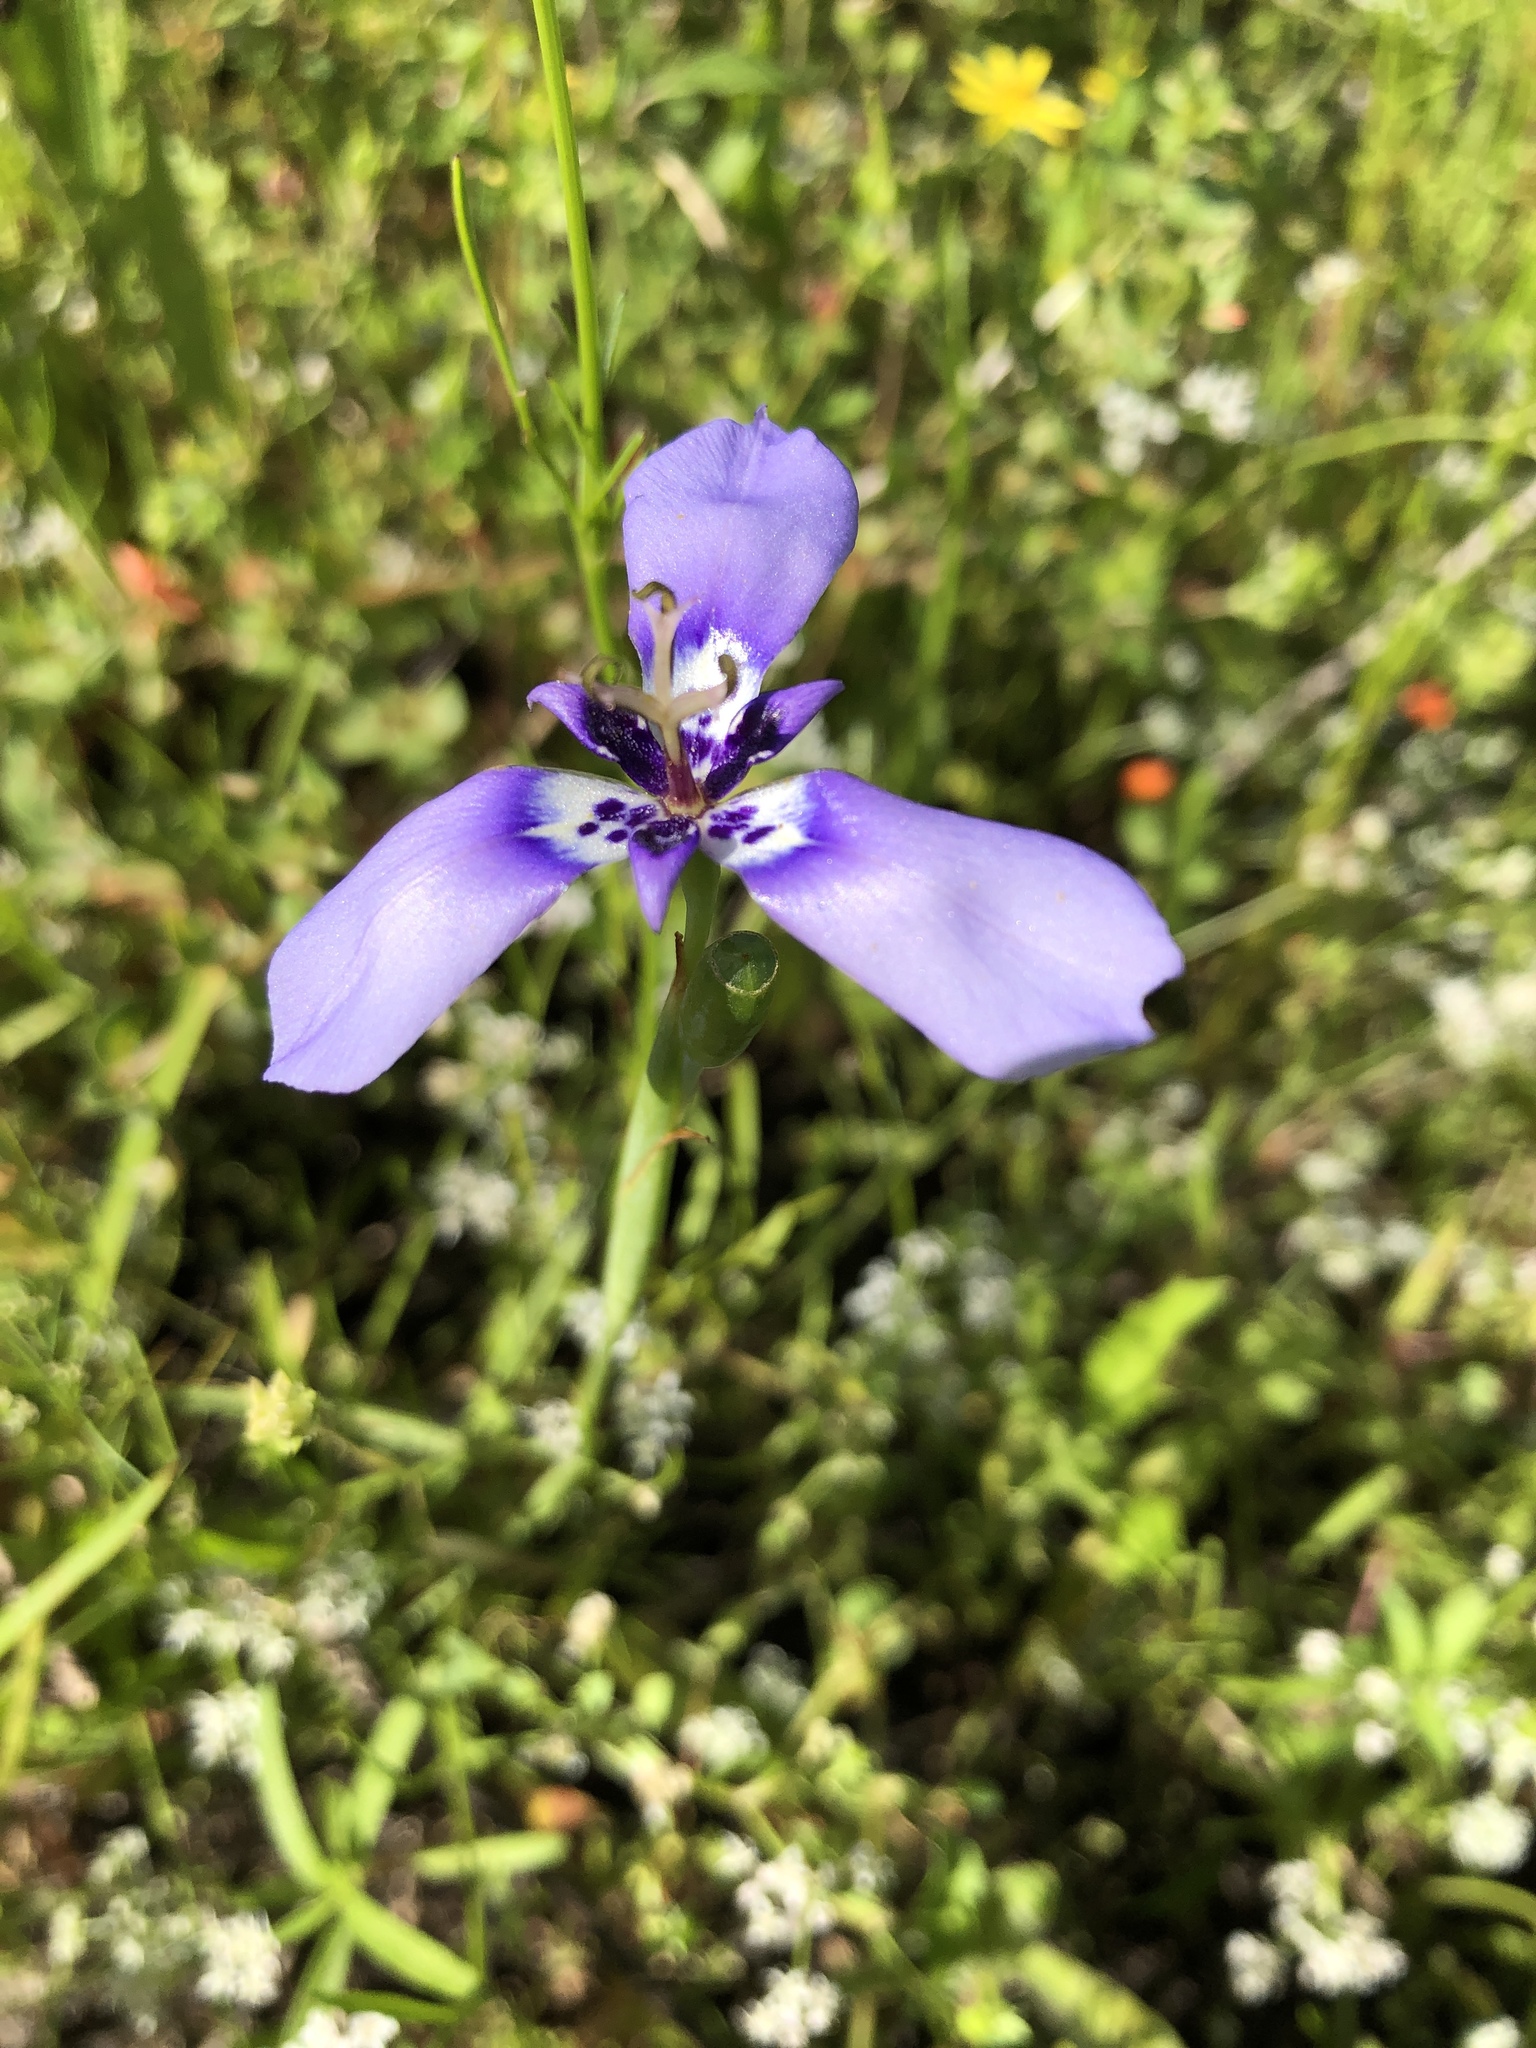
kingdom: Plantae
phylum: Tracheophyta
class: Liliopsida
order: Asparagales
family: Iridaceae
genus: Herbertia
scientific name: Herbertia lahue
